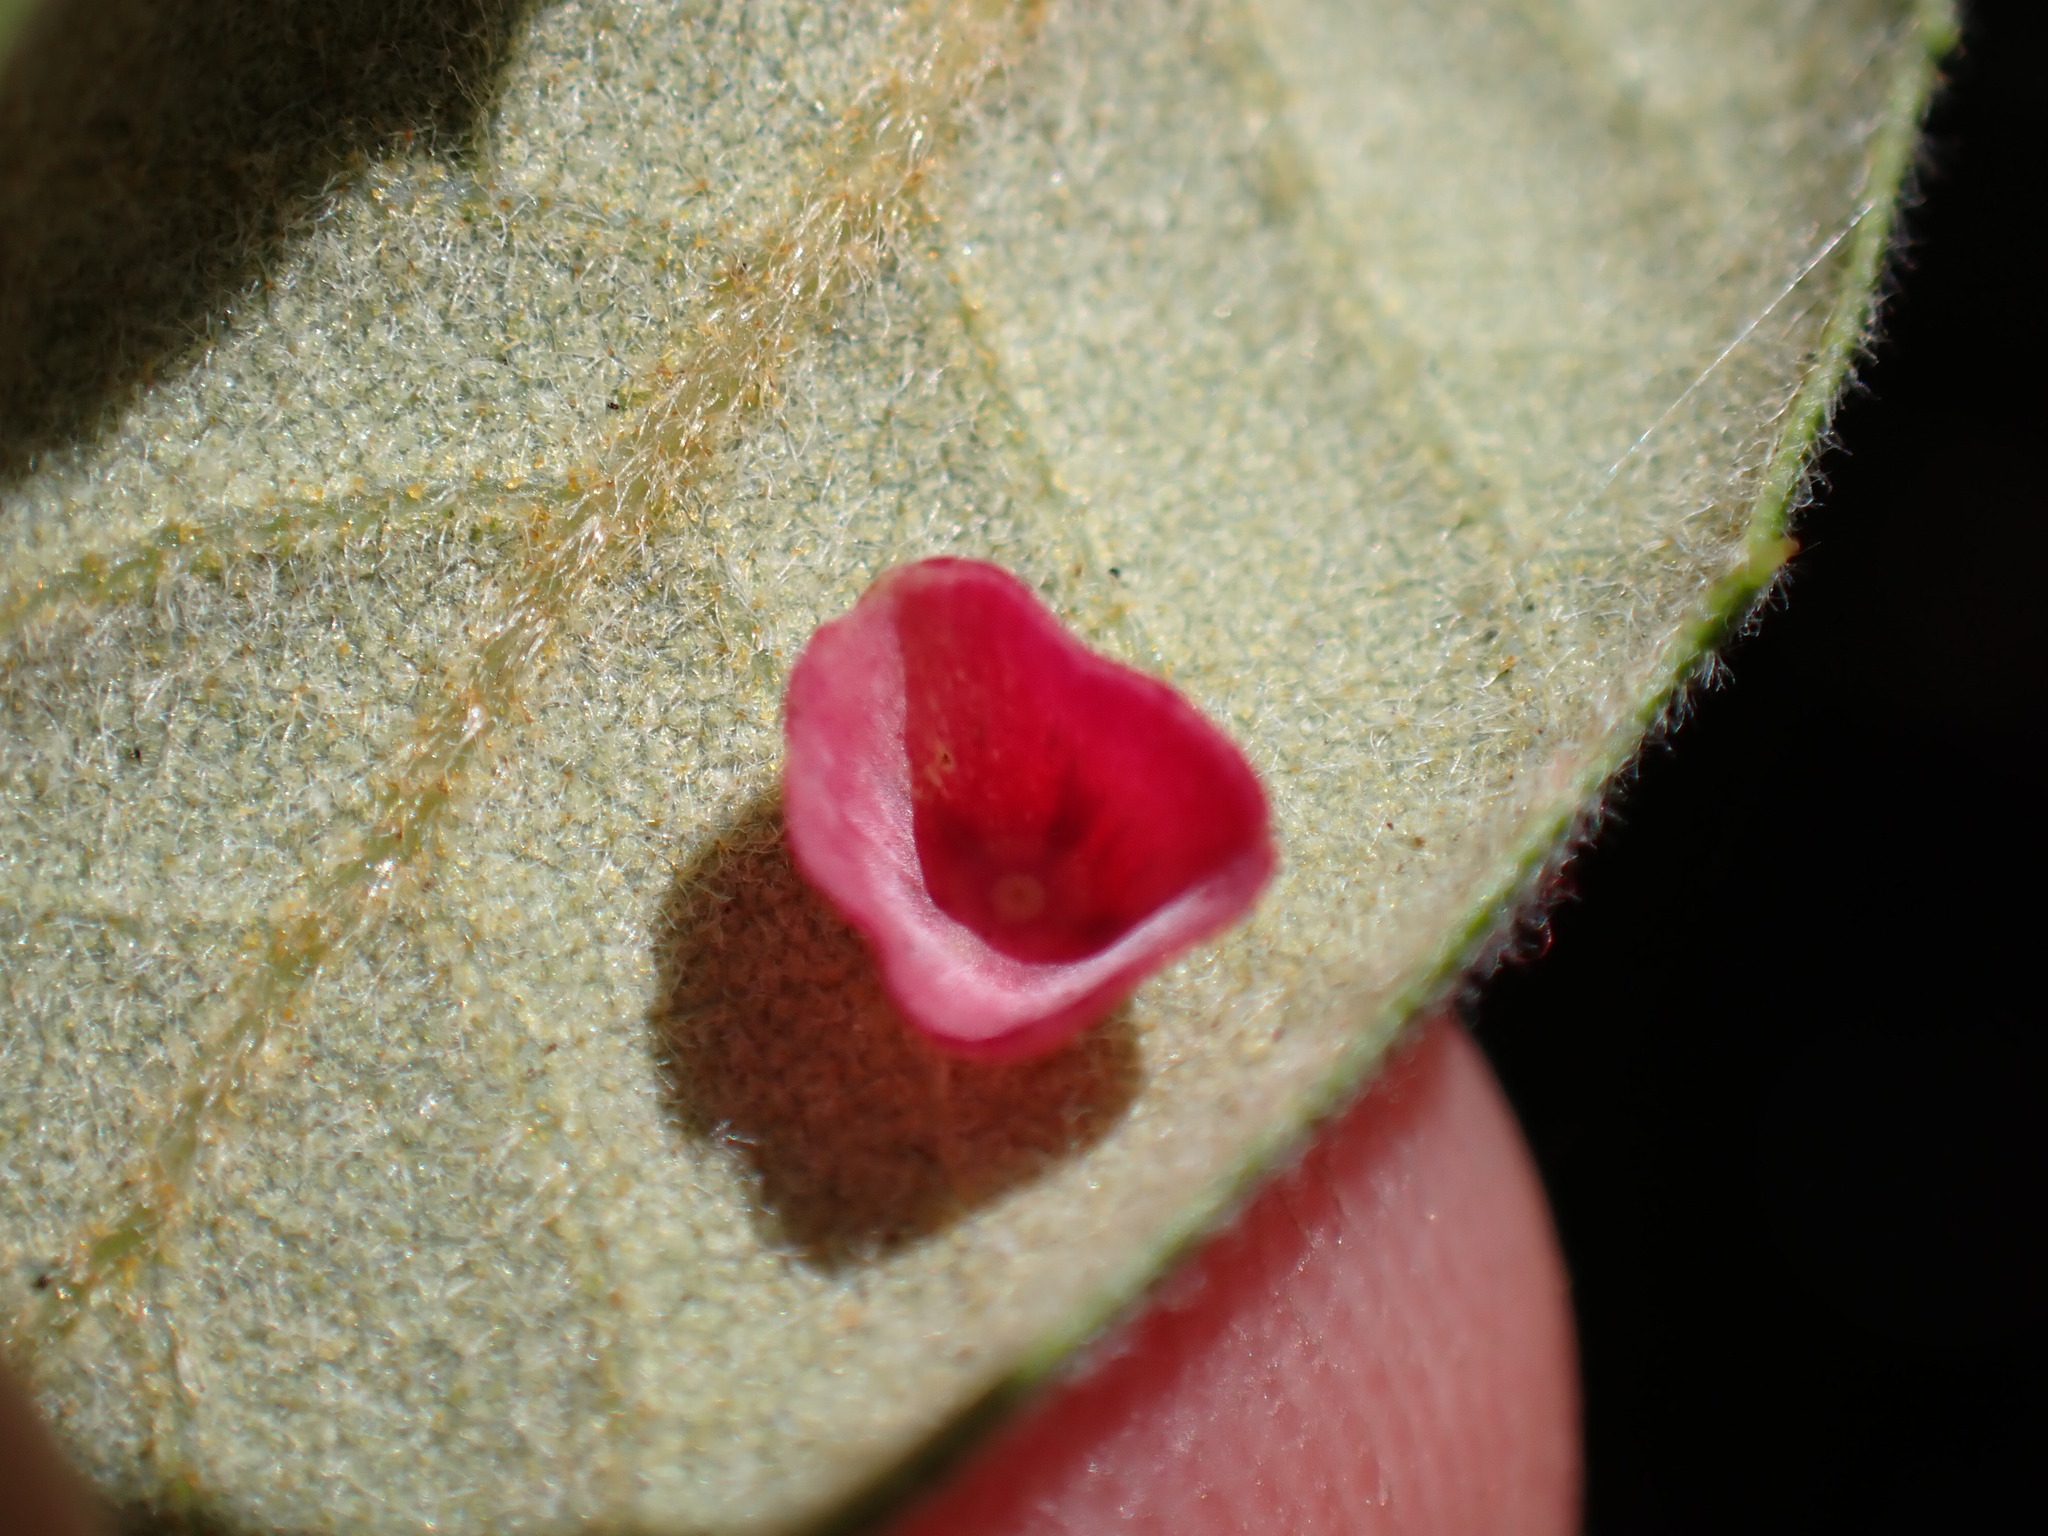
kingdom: Animalia
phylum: Arthropoda
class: Insecta
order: Hymenoptera
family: Cynipidae
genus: Andricus
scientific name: Andricus
